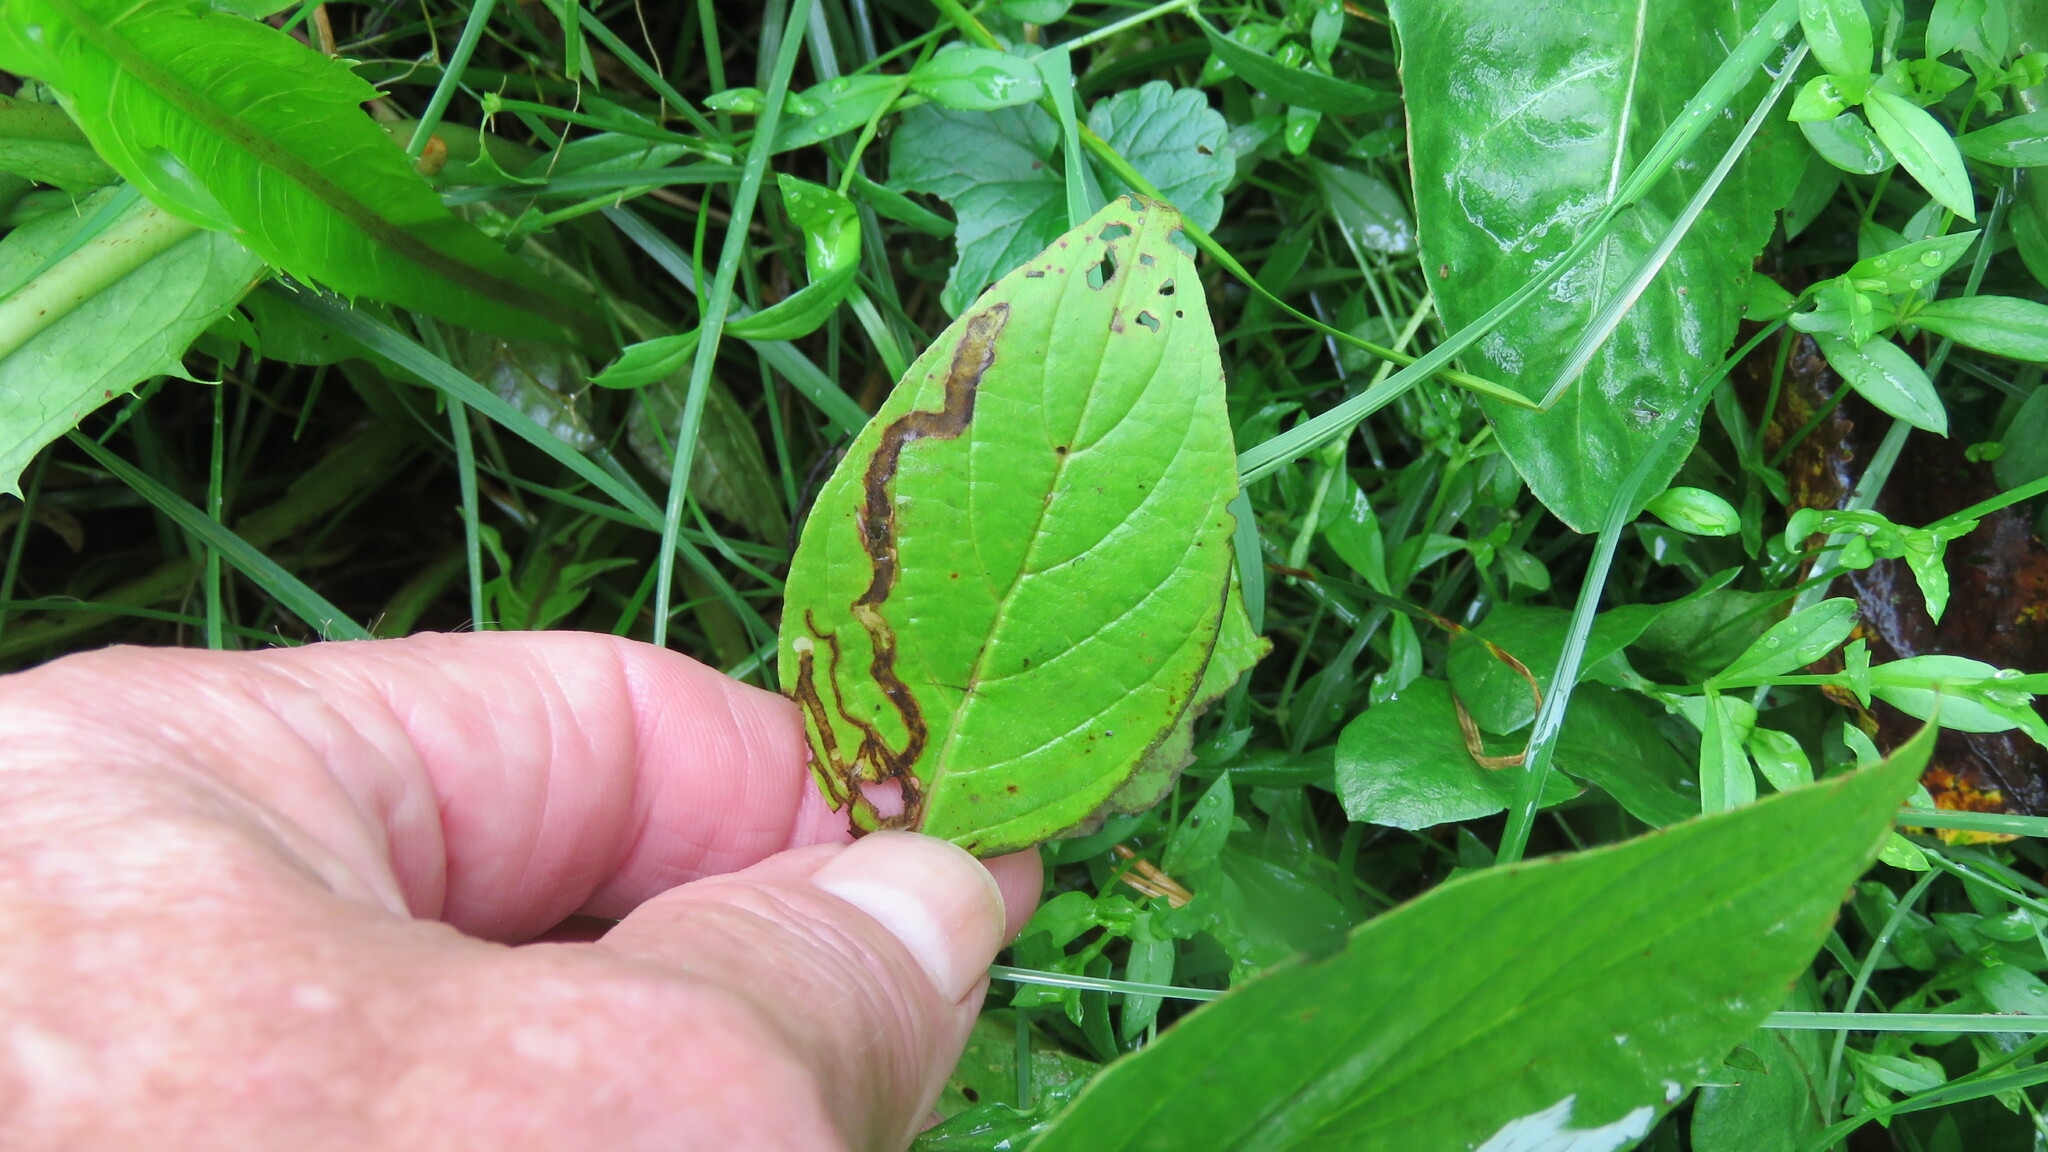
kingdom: Animalia
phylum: Arthropoda
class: Insecta
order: Diptera
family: Agromyzidae
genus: Phytomyza
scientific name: Phytomyza agromyzina
